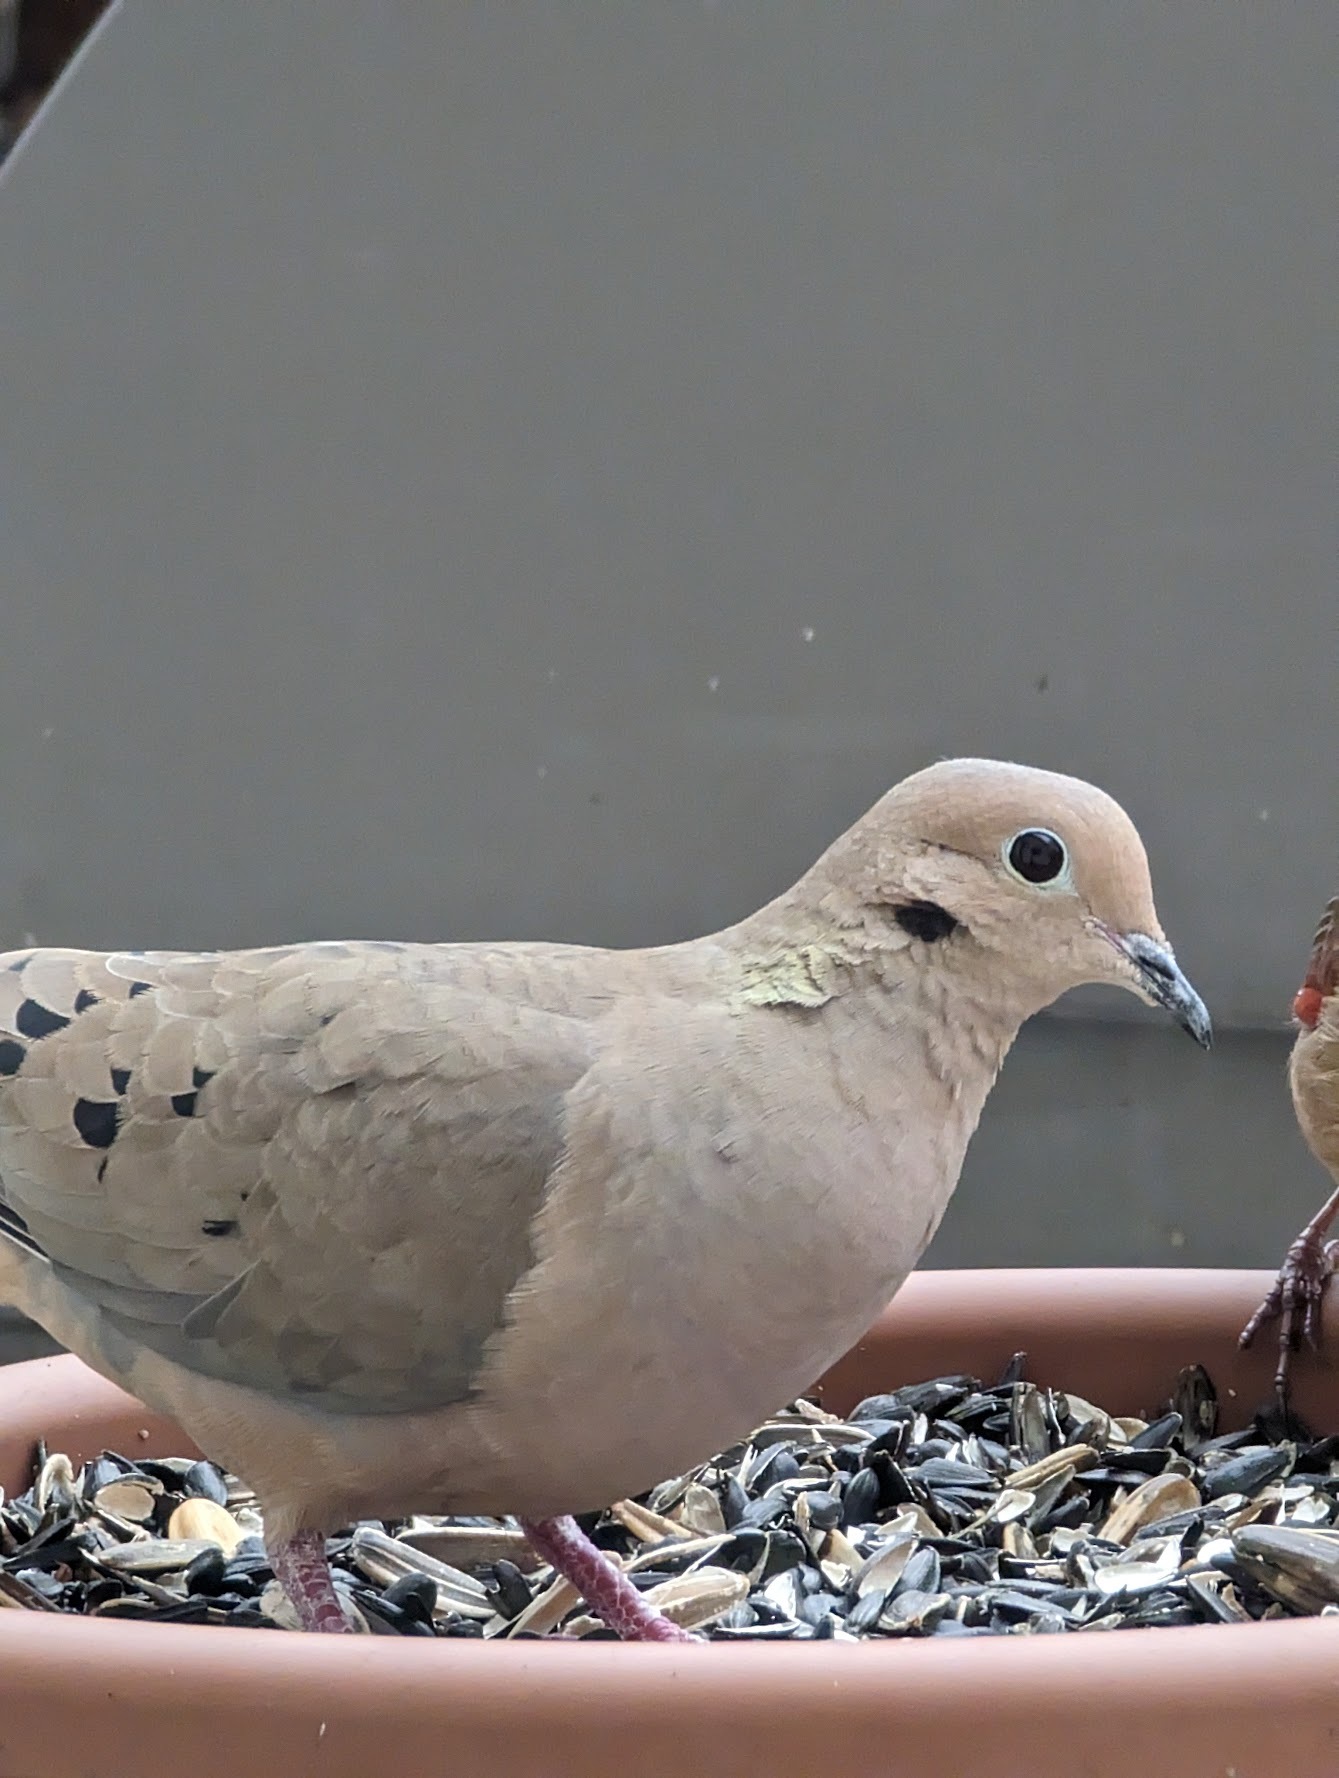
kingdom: Animalia
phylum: Chordata
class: Aves
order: Columbiformes
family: Columbidae
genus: Zenaida
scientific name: Zenaida macroura
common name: Mourning dove
